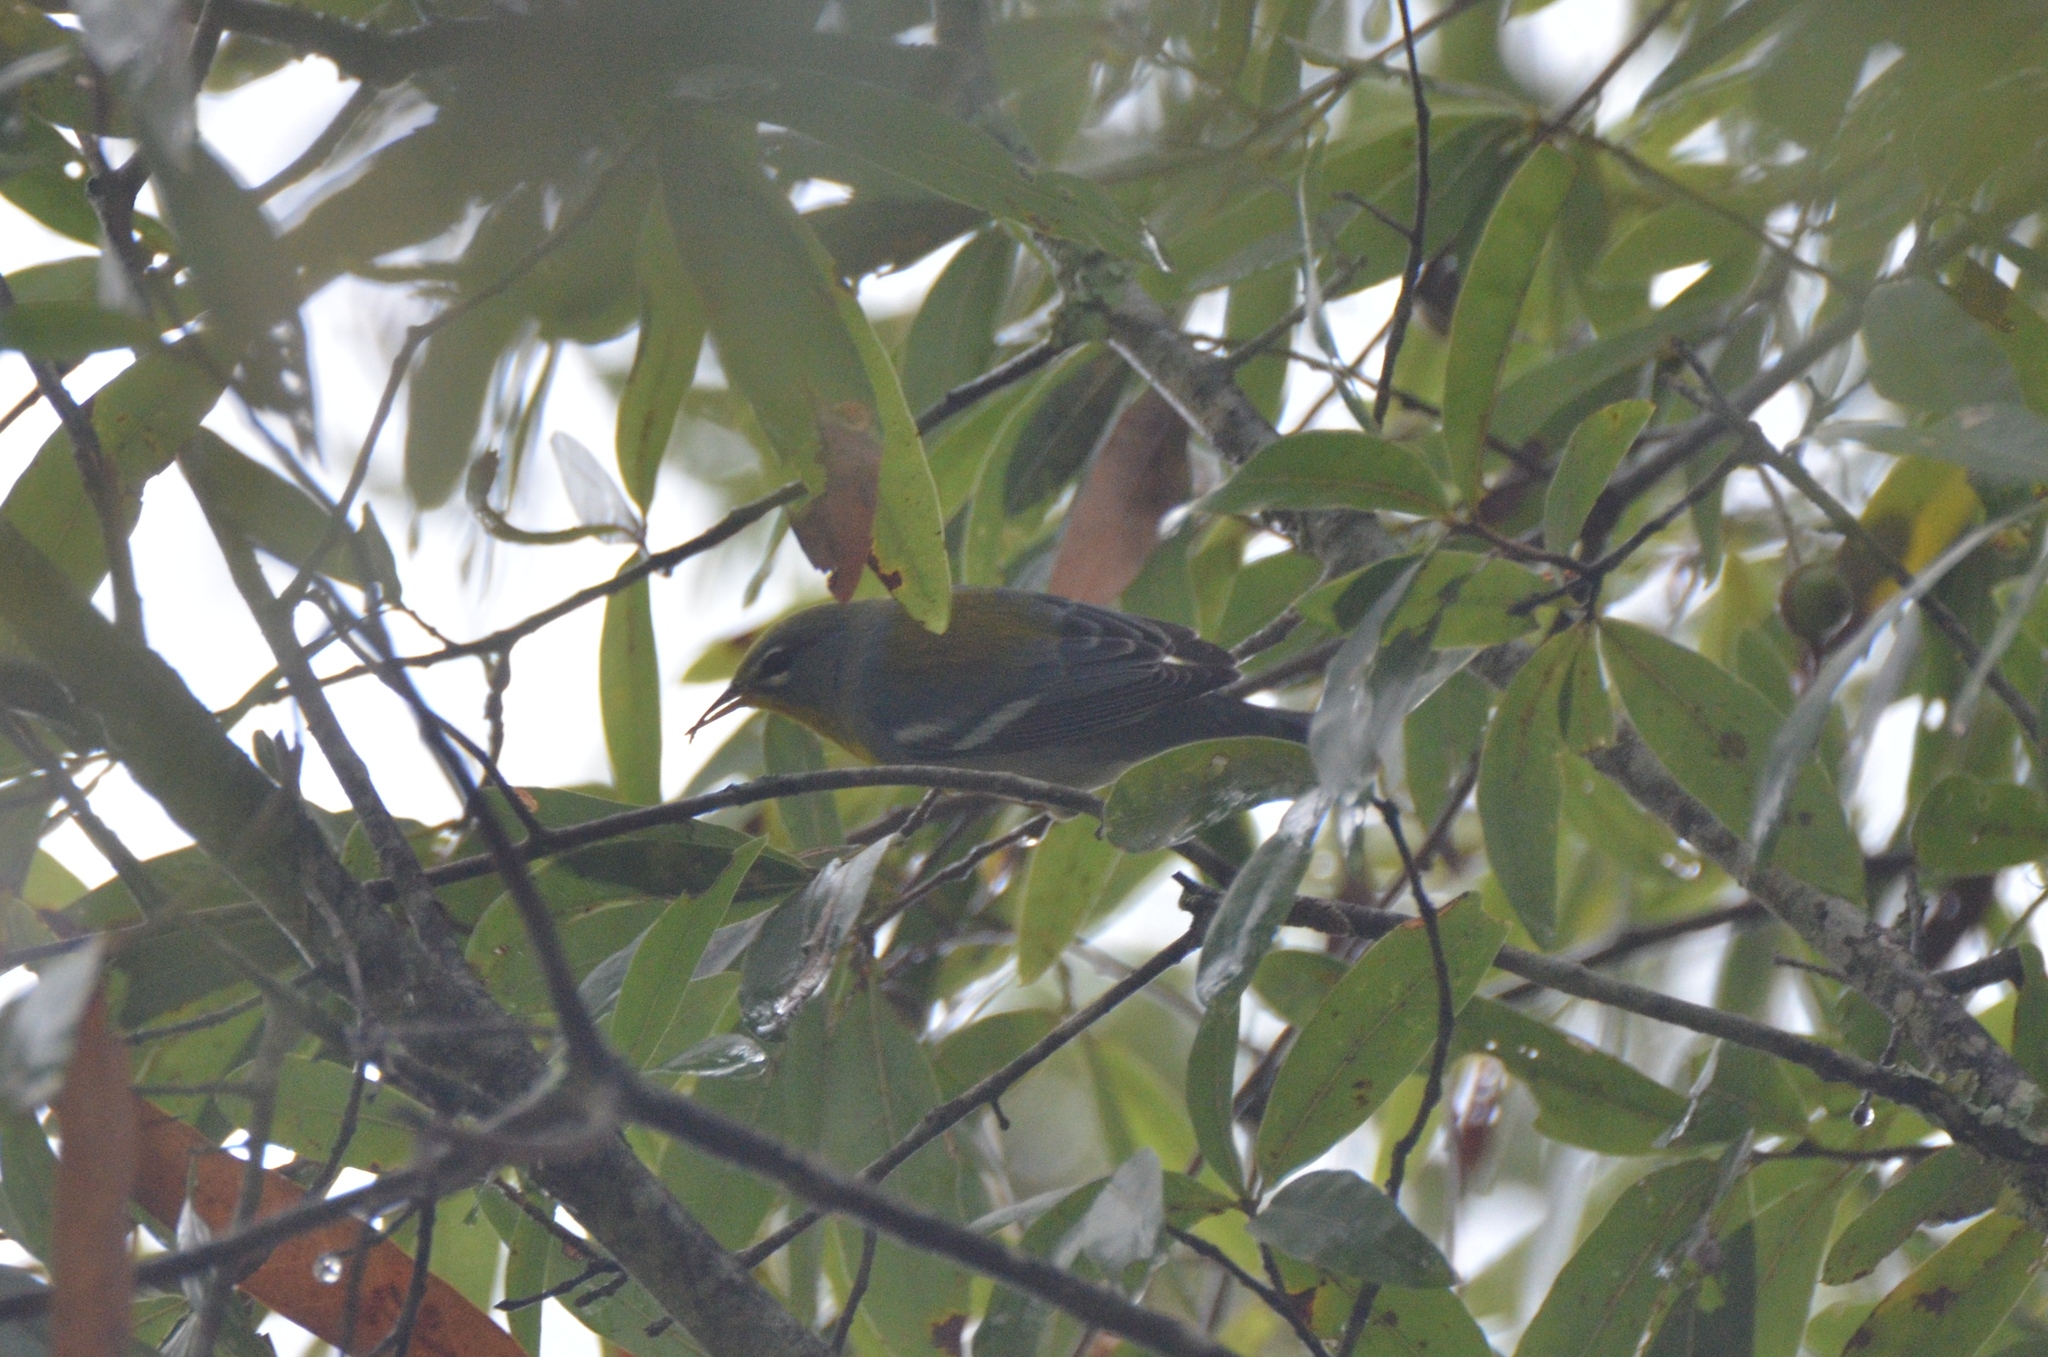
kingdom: Animalia
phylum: Chordata
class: Aves
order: Passeriformes
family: Parulidae
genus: Setophaga
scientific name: Setophaga americana
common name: Northern parula
